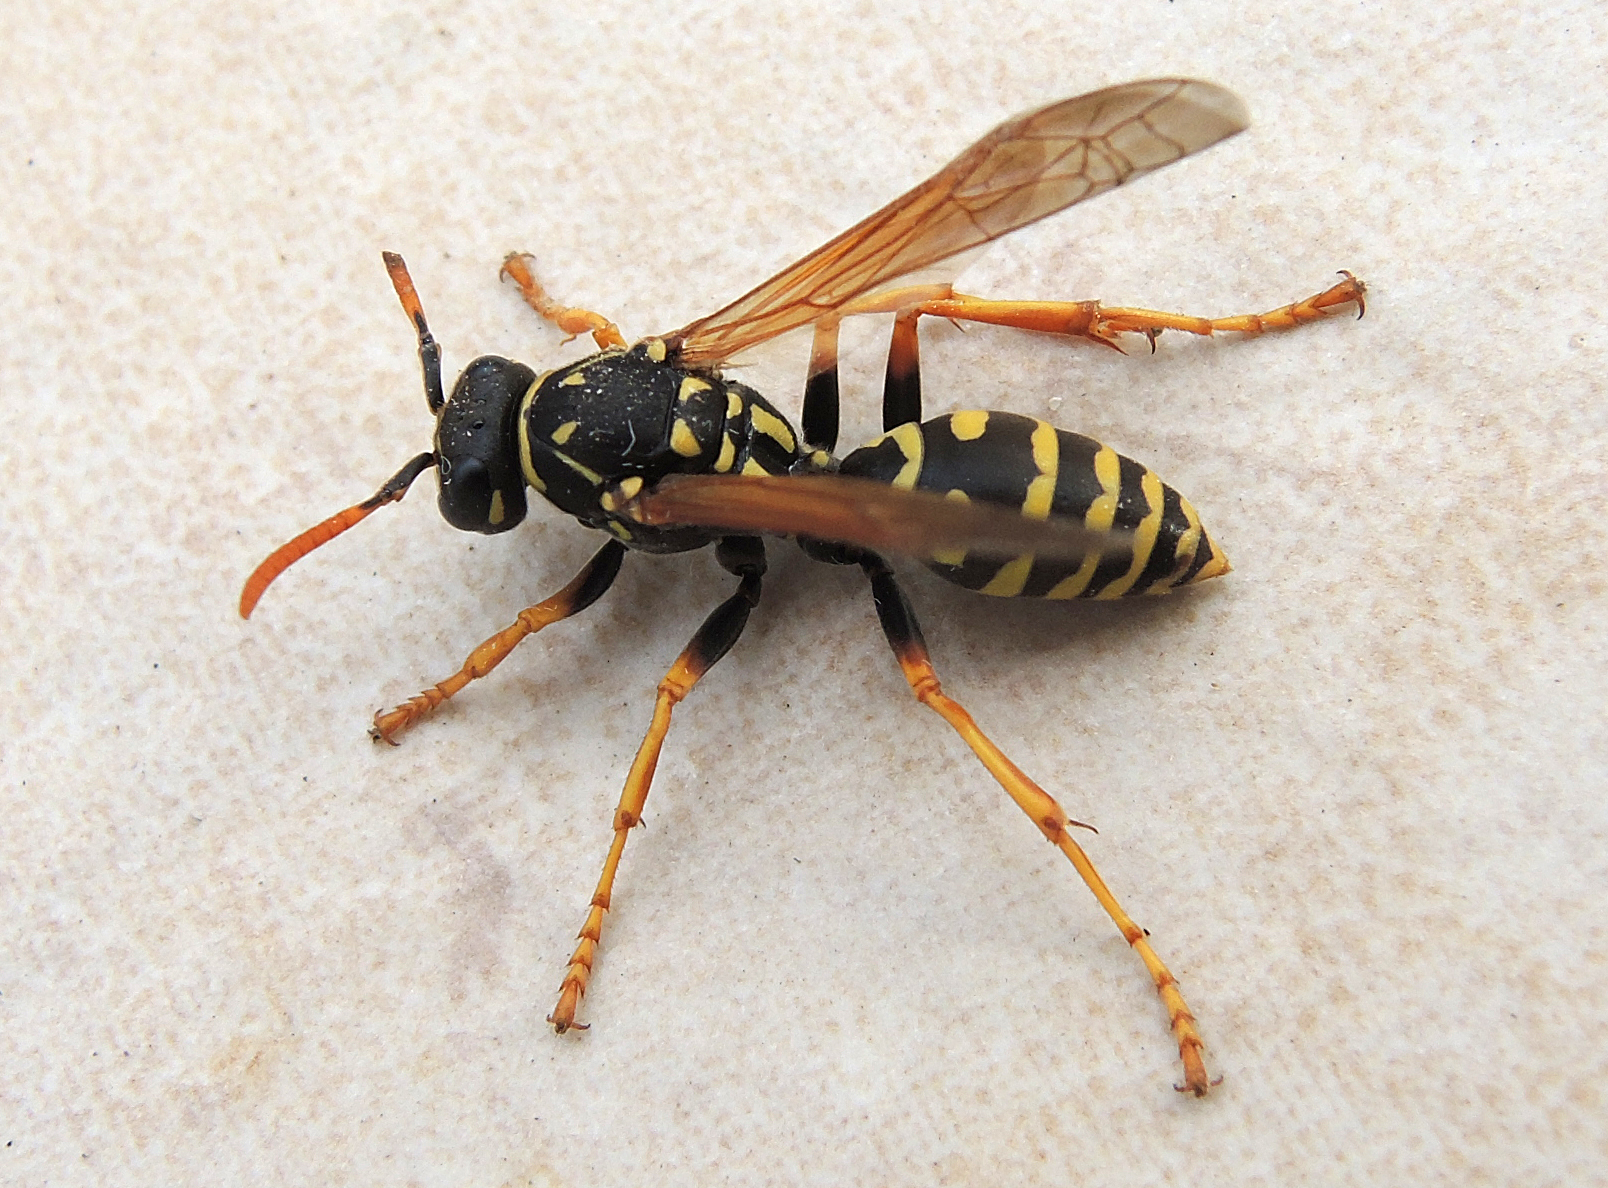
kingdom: Animalia
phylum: Arthropoda
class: Insecta
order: Hymenoptera
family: Eumenidae
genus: Polistes
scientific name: Polistes dominula
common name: Paper wasp
